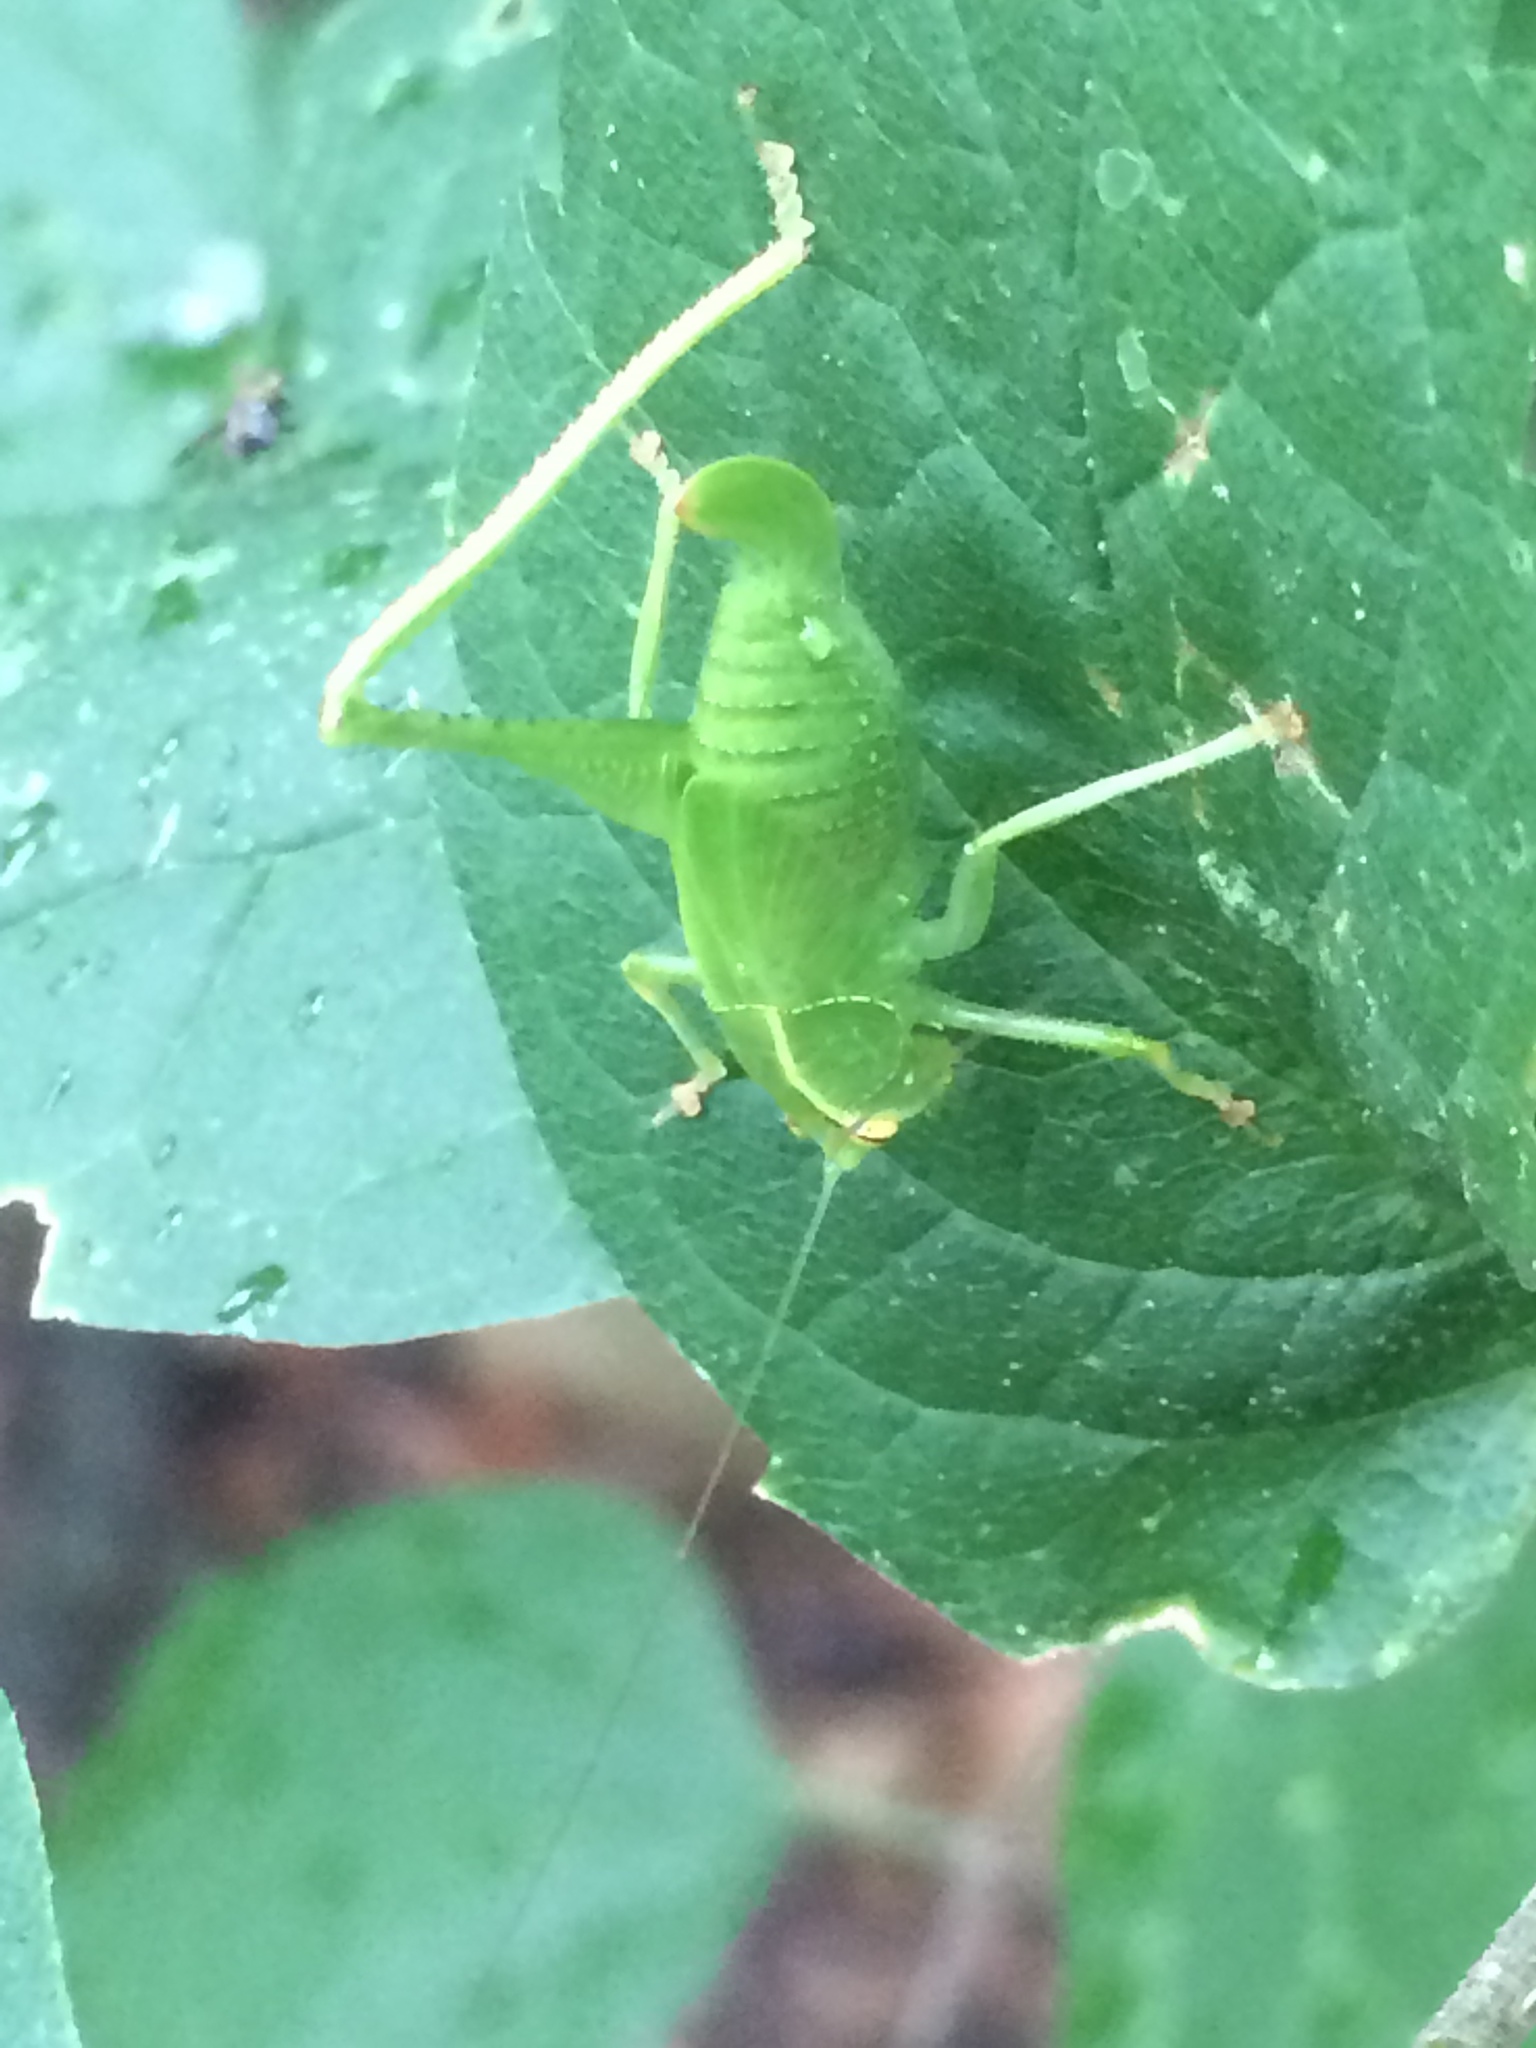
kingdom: Animalia
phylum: Arthropoda
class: Insecta
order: Orthoptera
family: Tettigoniidae
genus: Montezumina
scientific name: Montezumina modesta
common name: Modest katydid
